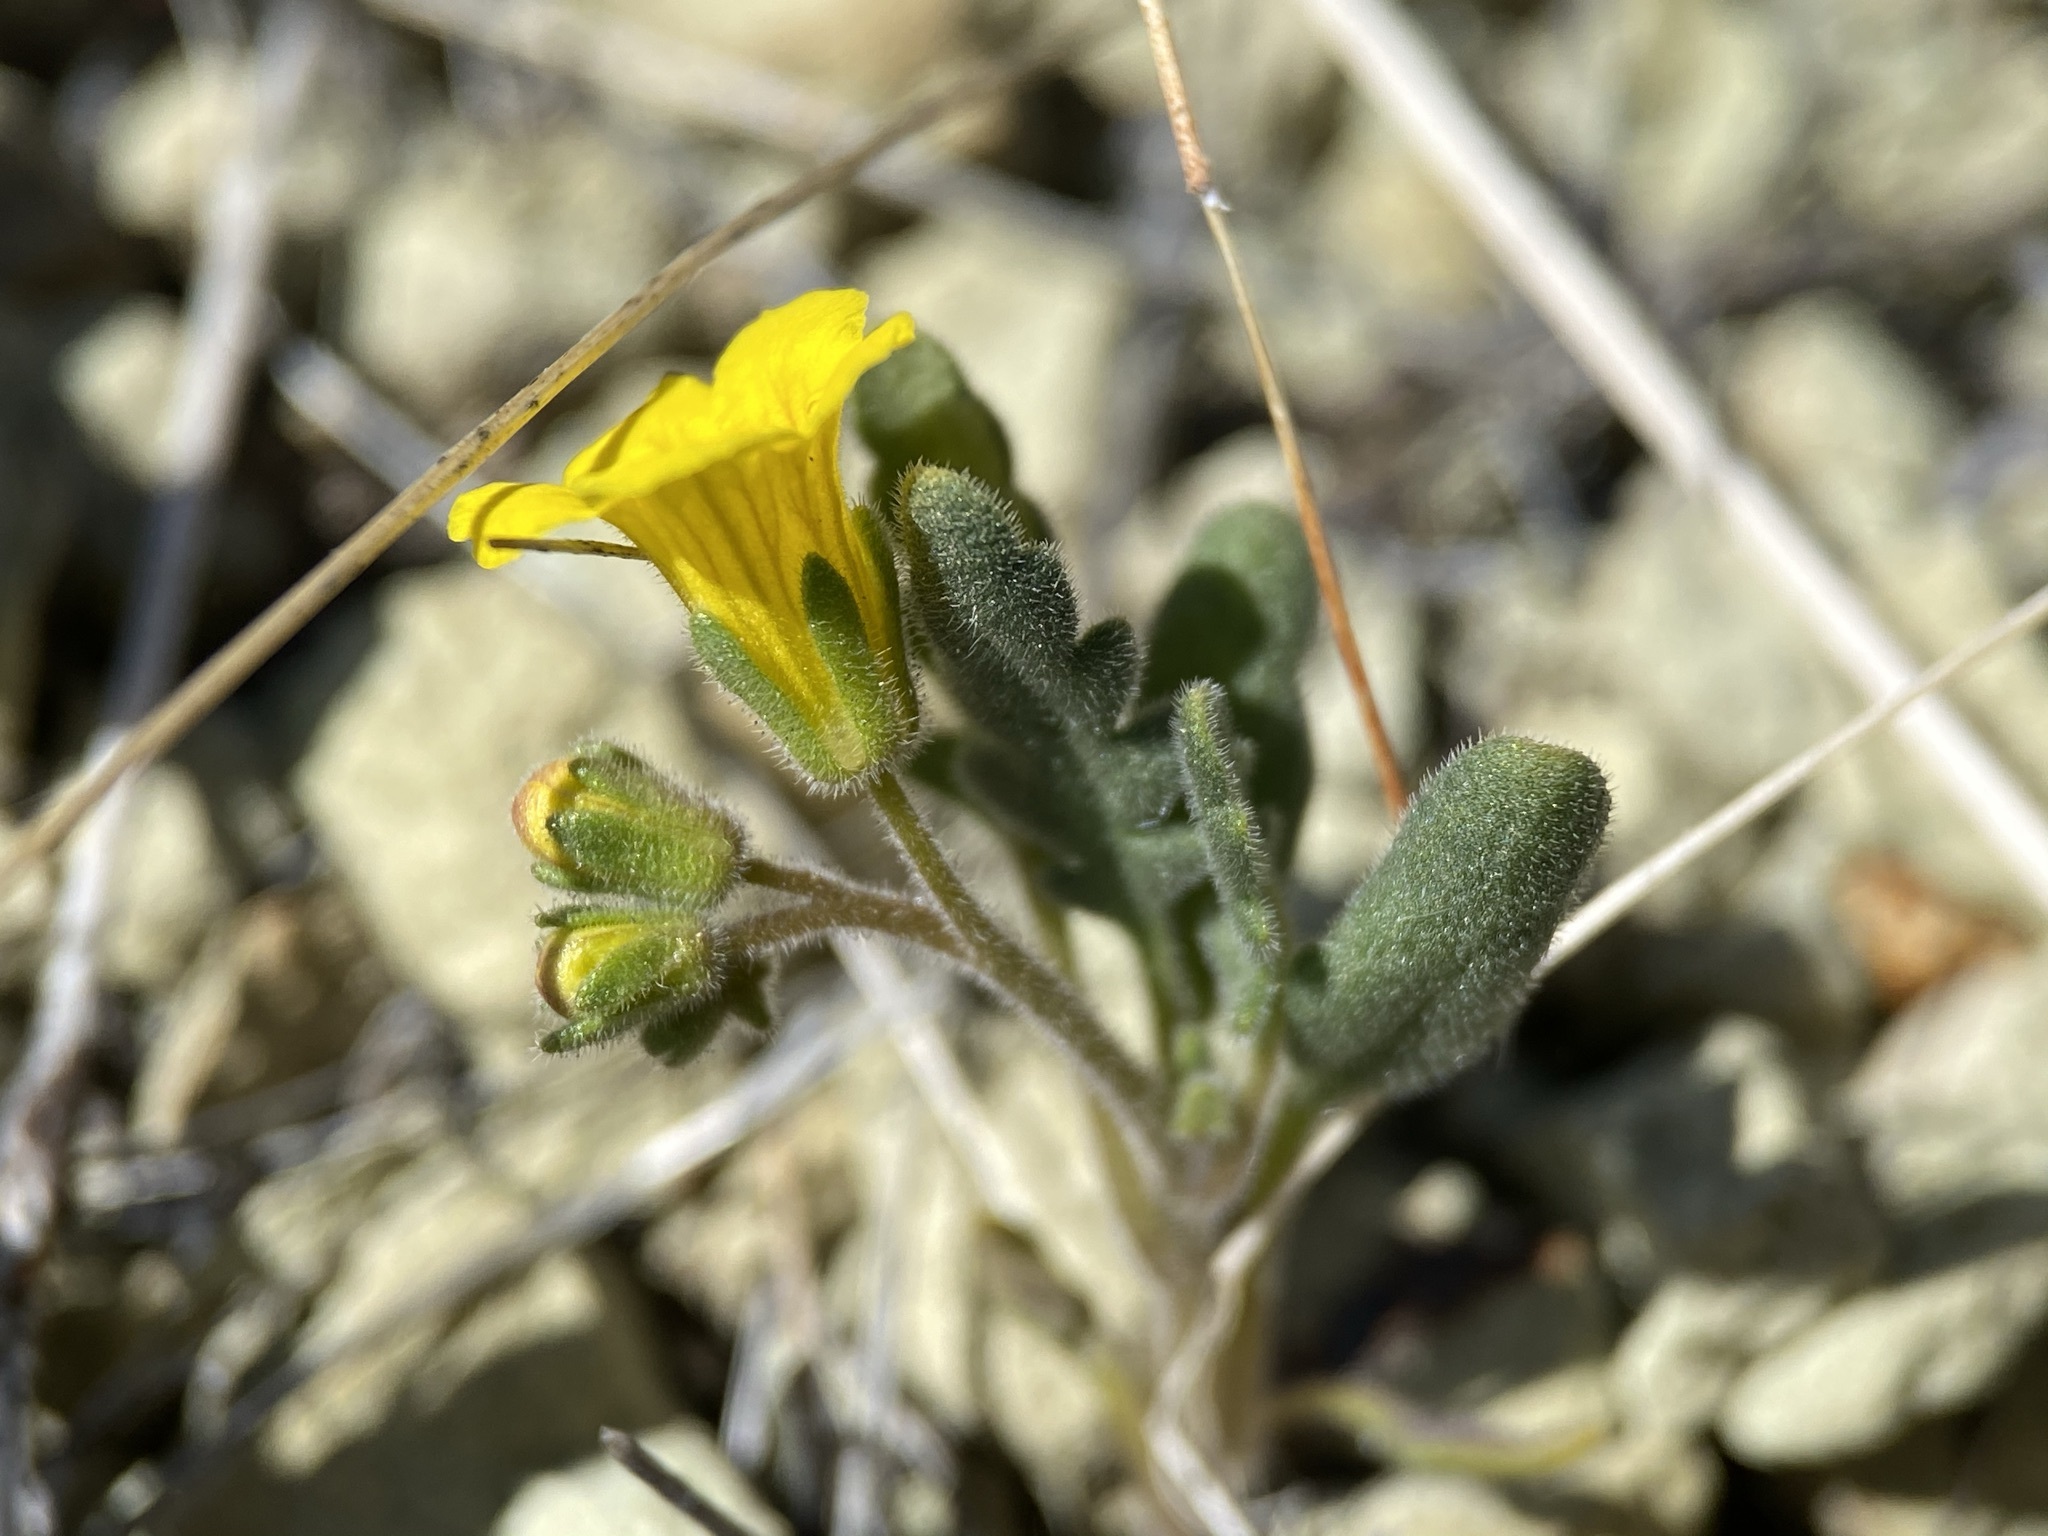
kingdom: Plantae
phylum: Tracheophyta
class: Magnoliopsida
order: Boraginales
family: Hydrophyllaceae
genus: Phacelia
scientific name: Phacelia lutea
